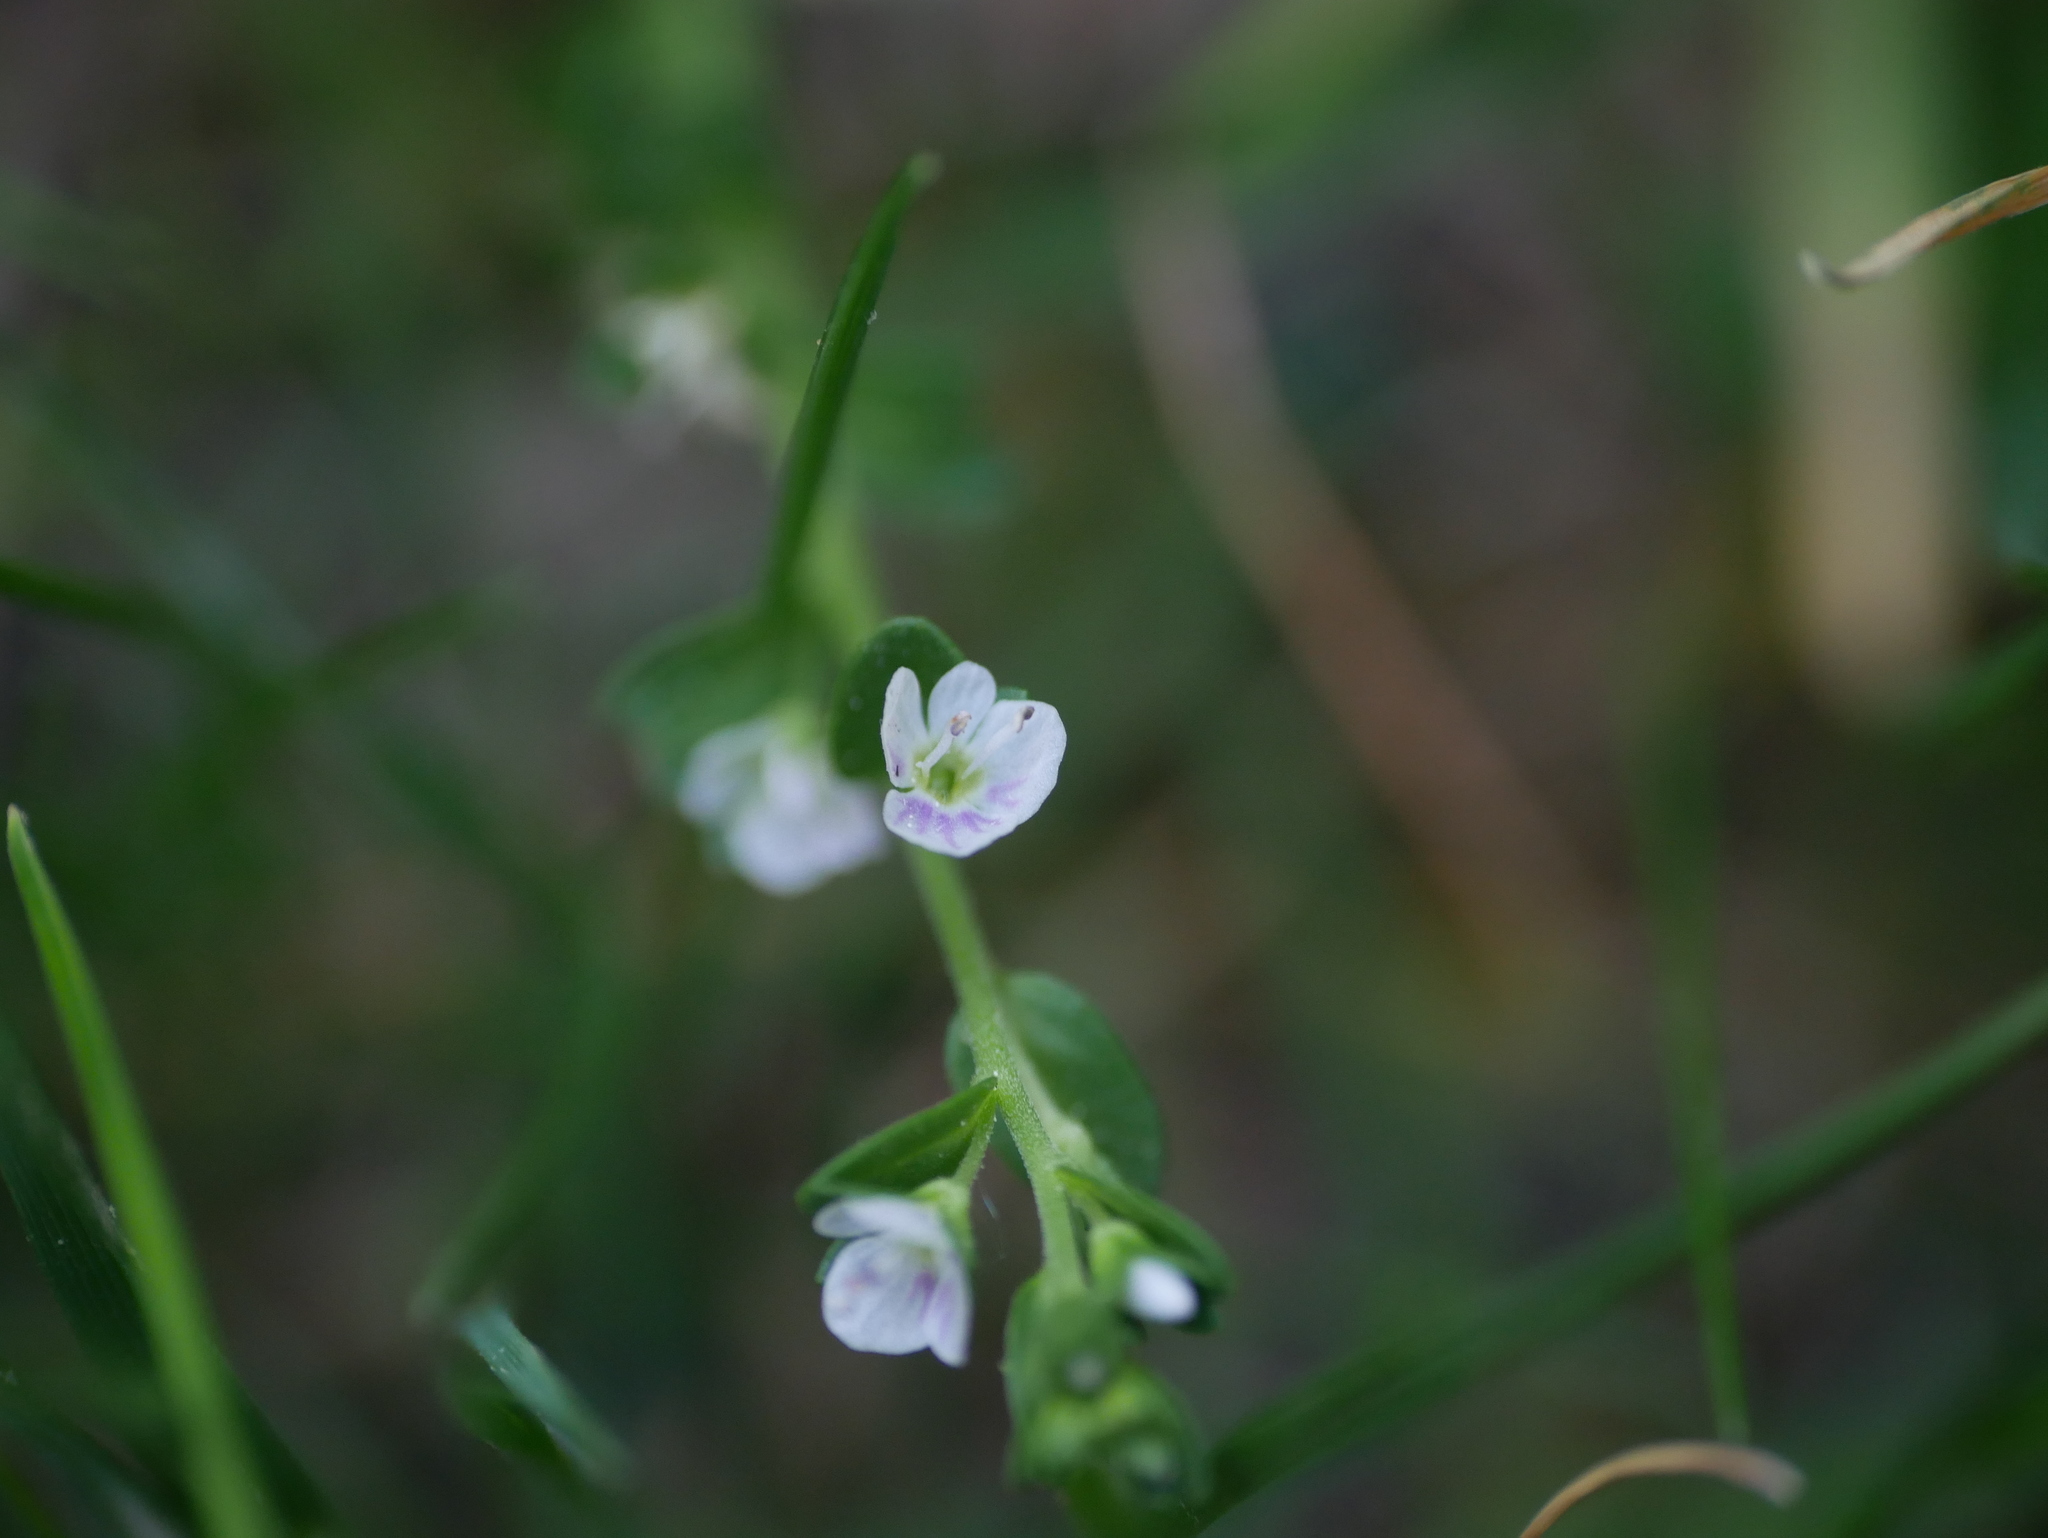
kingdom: Plantae
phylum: Tracheophyta
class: Magnoliopsida
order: Lamiales
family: Plantaginaceae
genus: Veronica
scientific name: Veronica serpyllifolia
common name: Thyme-leaved speedwell
